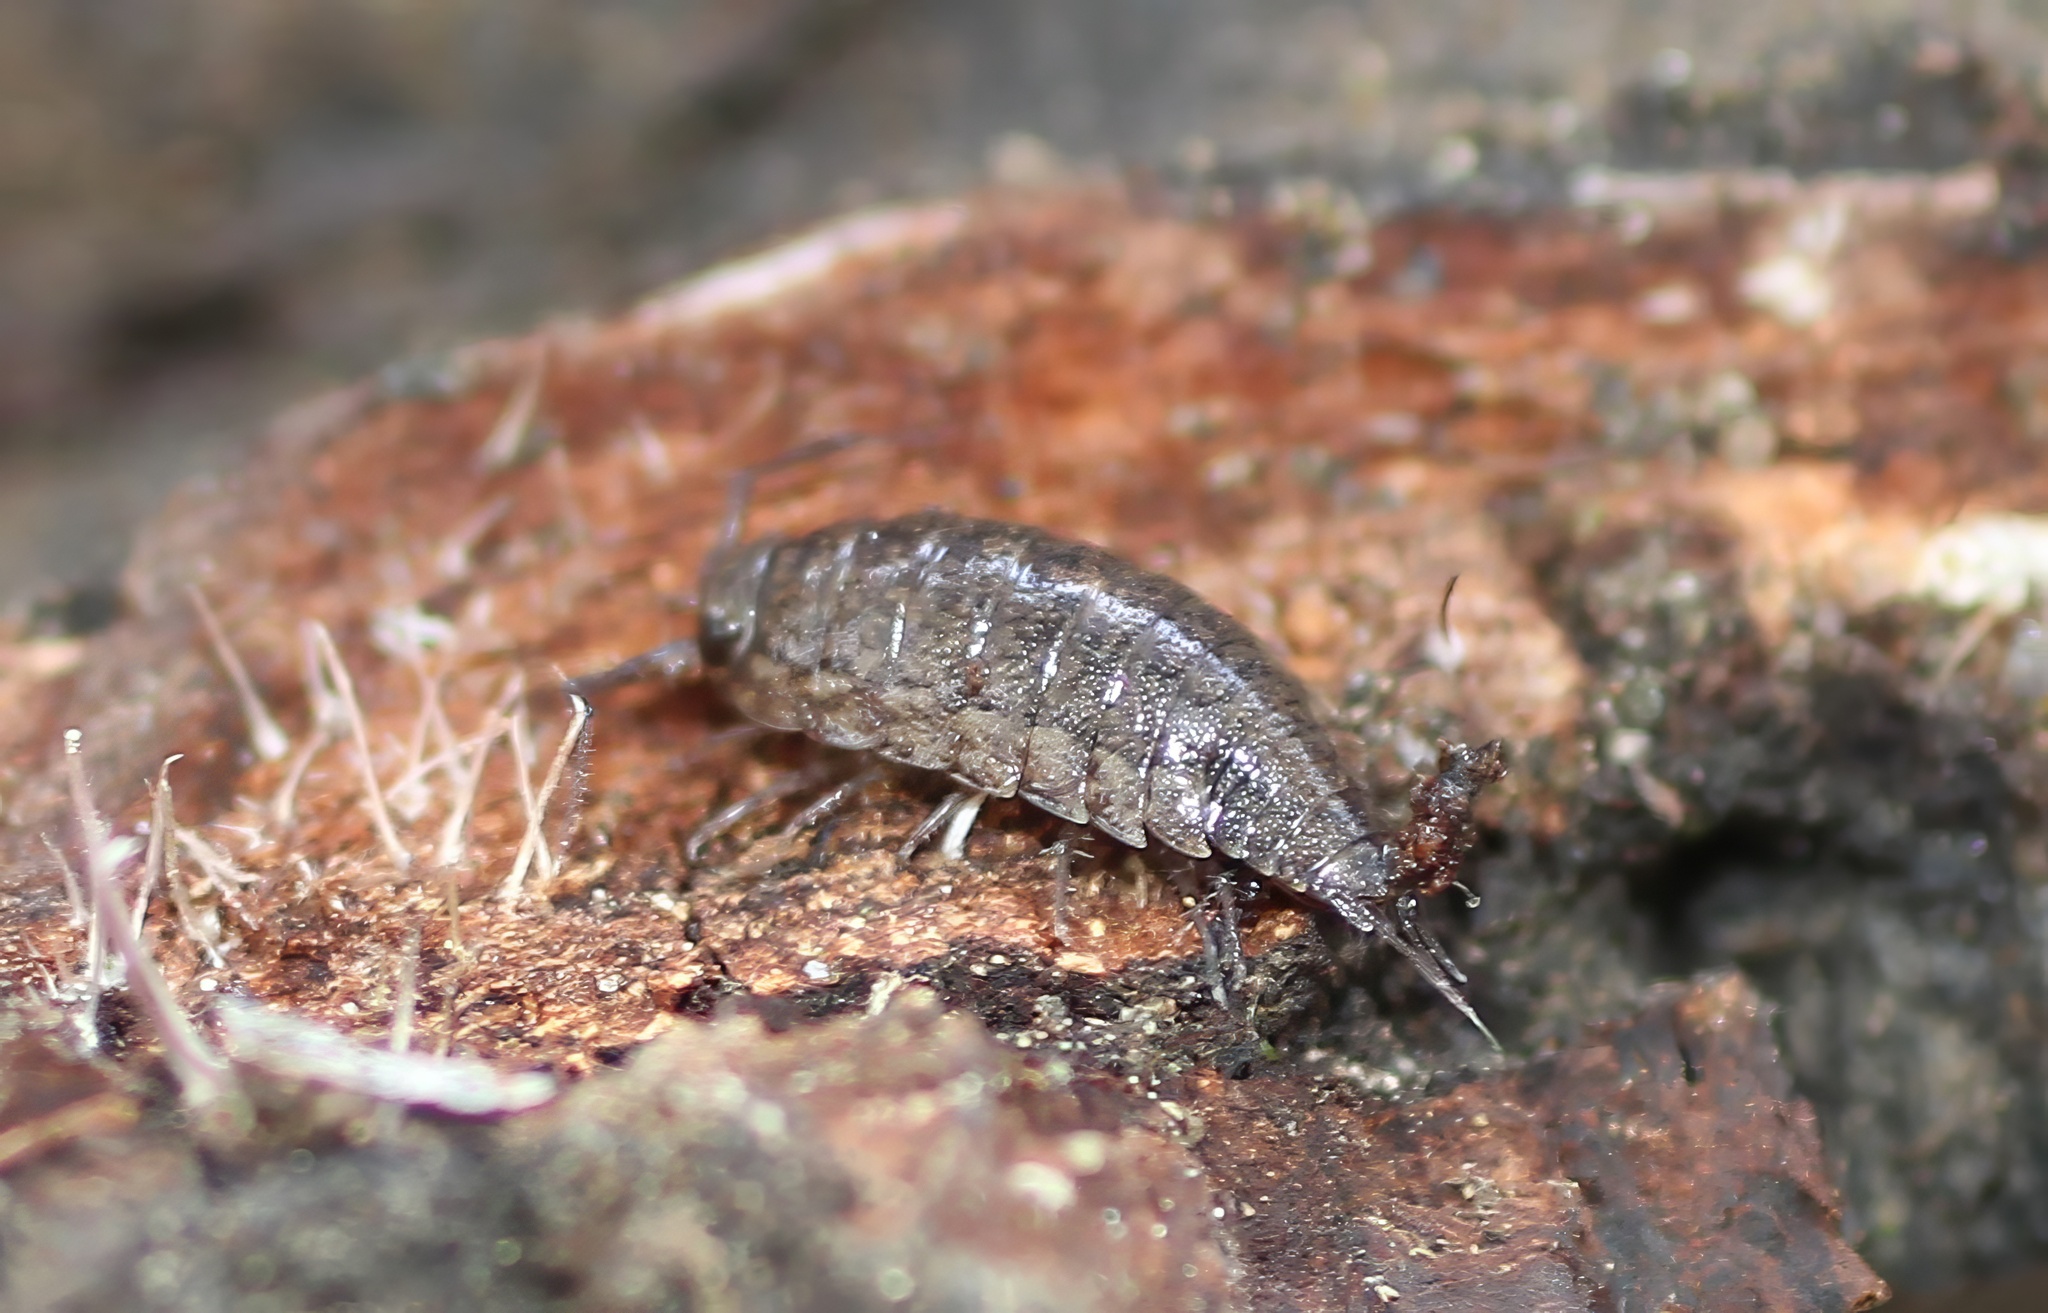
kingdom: Animalia
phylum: Arthropoda
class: Malacostraca
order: Isopoda
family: Ligiidae
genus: Ligidium
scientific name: Ligidium latum
